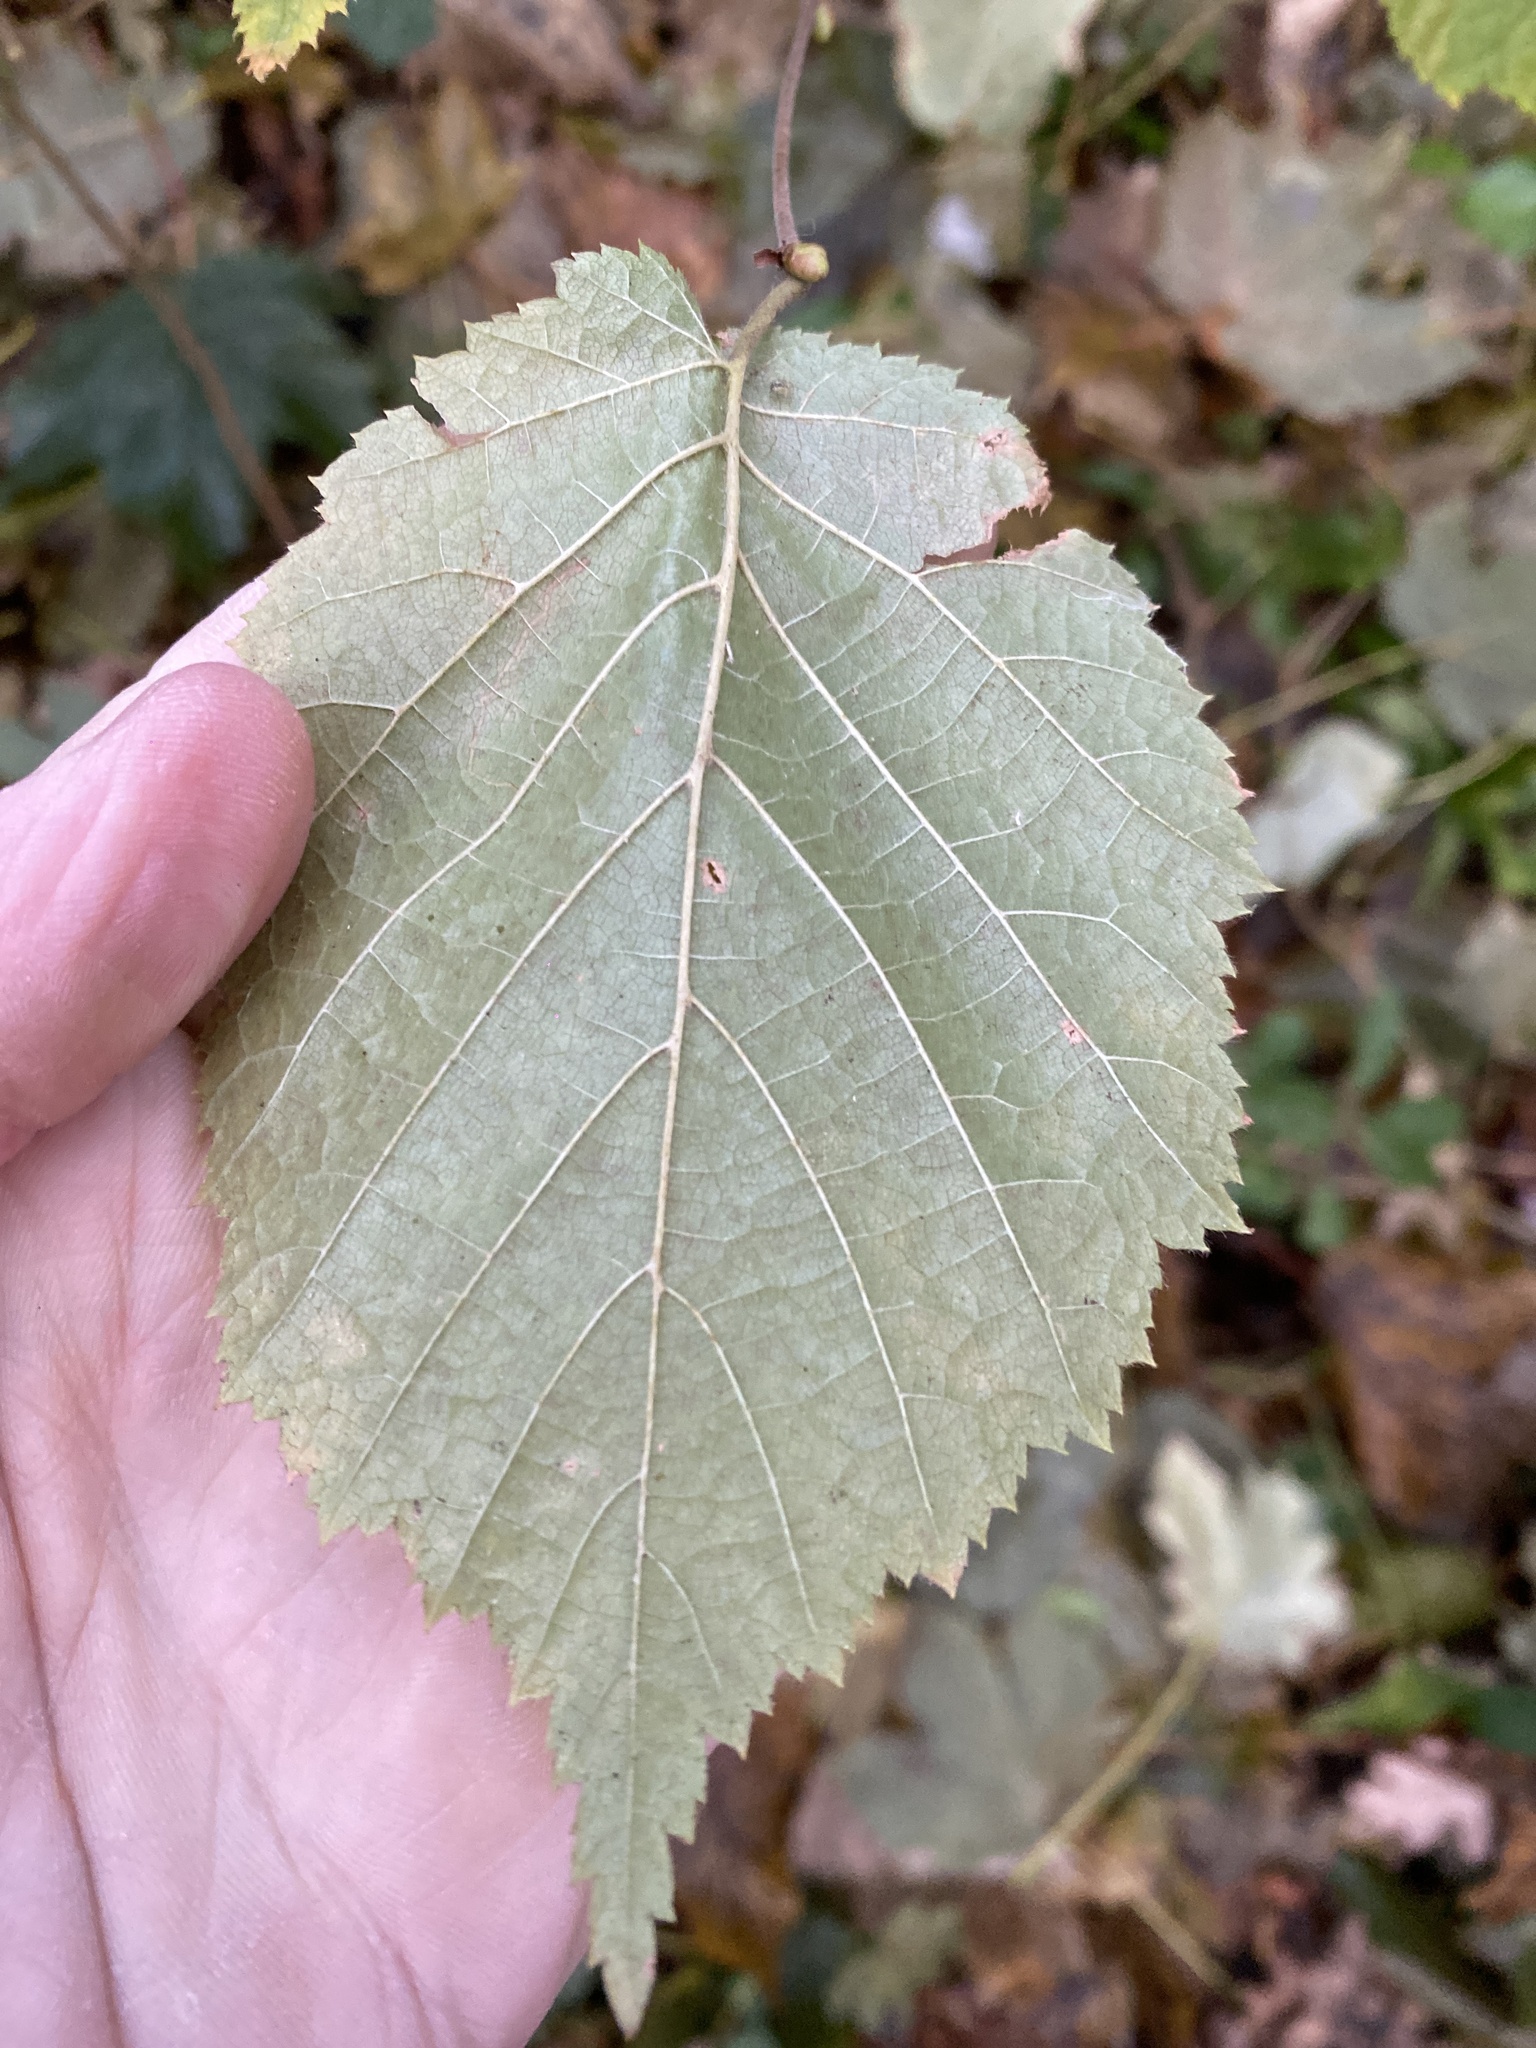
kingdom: Plantae
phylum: Tracheophyta
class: Magnoliopsida
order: Fagales
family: Betulaceae
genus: Corylus
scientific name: Corylus avellana
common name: European hazel
